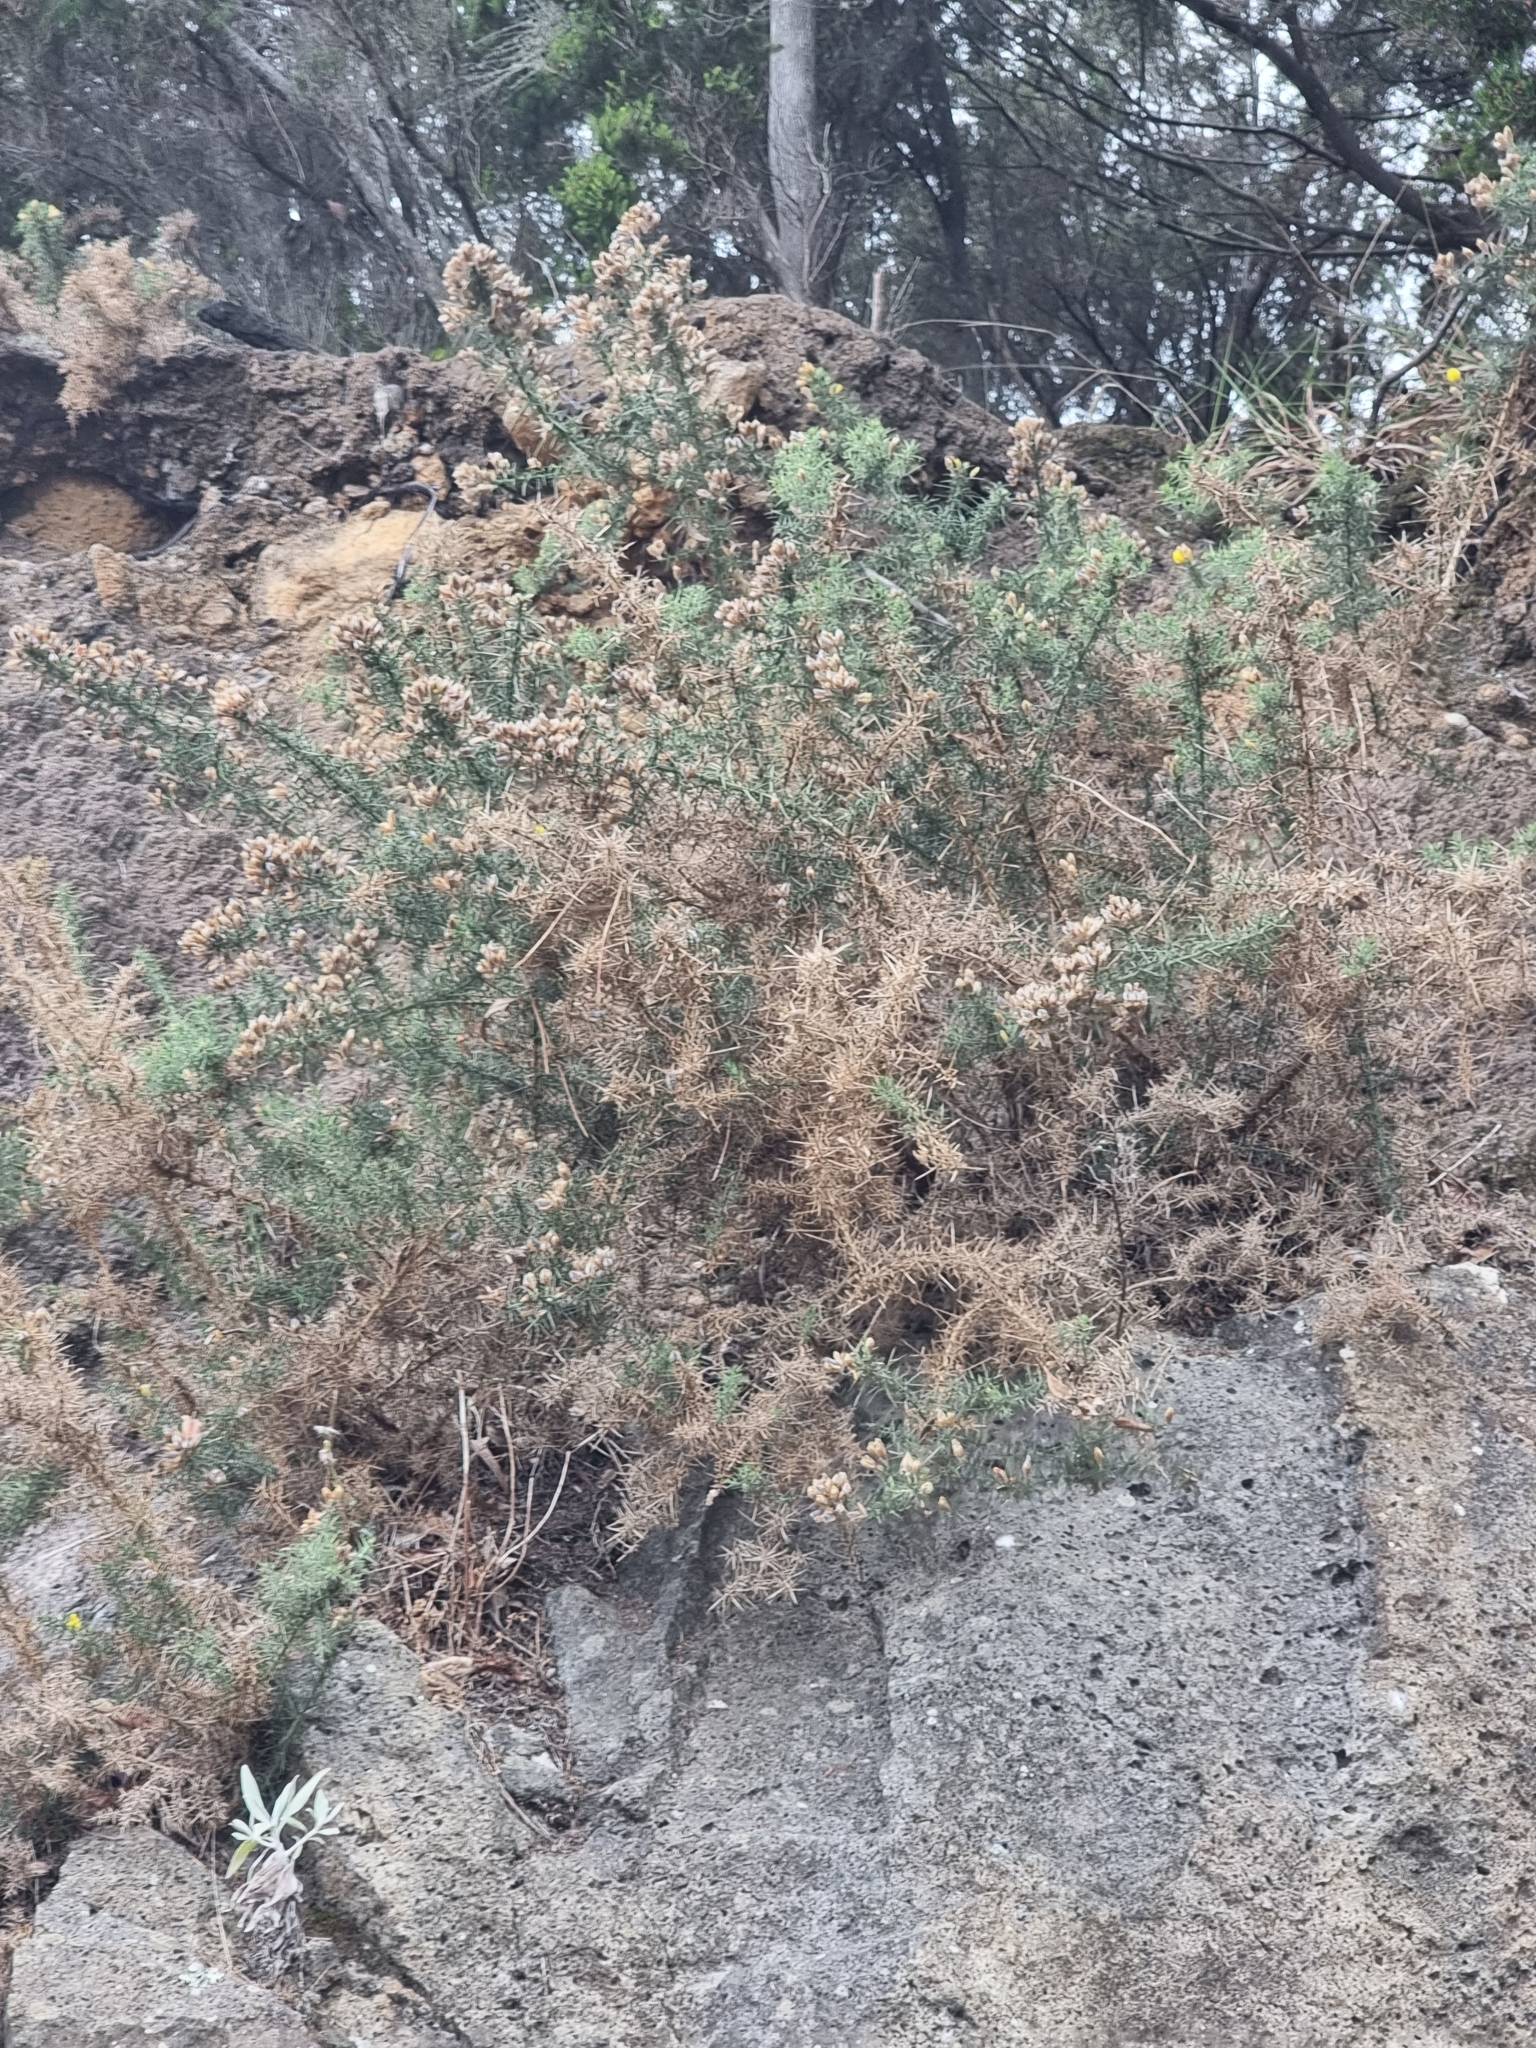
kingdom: Plantae
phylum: Tracheophyta
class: Magnoliopsida
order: Fabales
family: Fabaceae
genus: Ulex
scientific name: Ulex europaeus
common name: Common gorse
